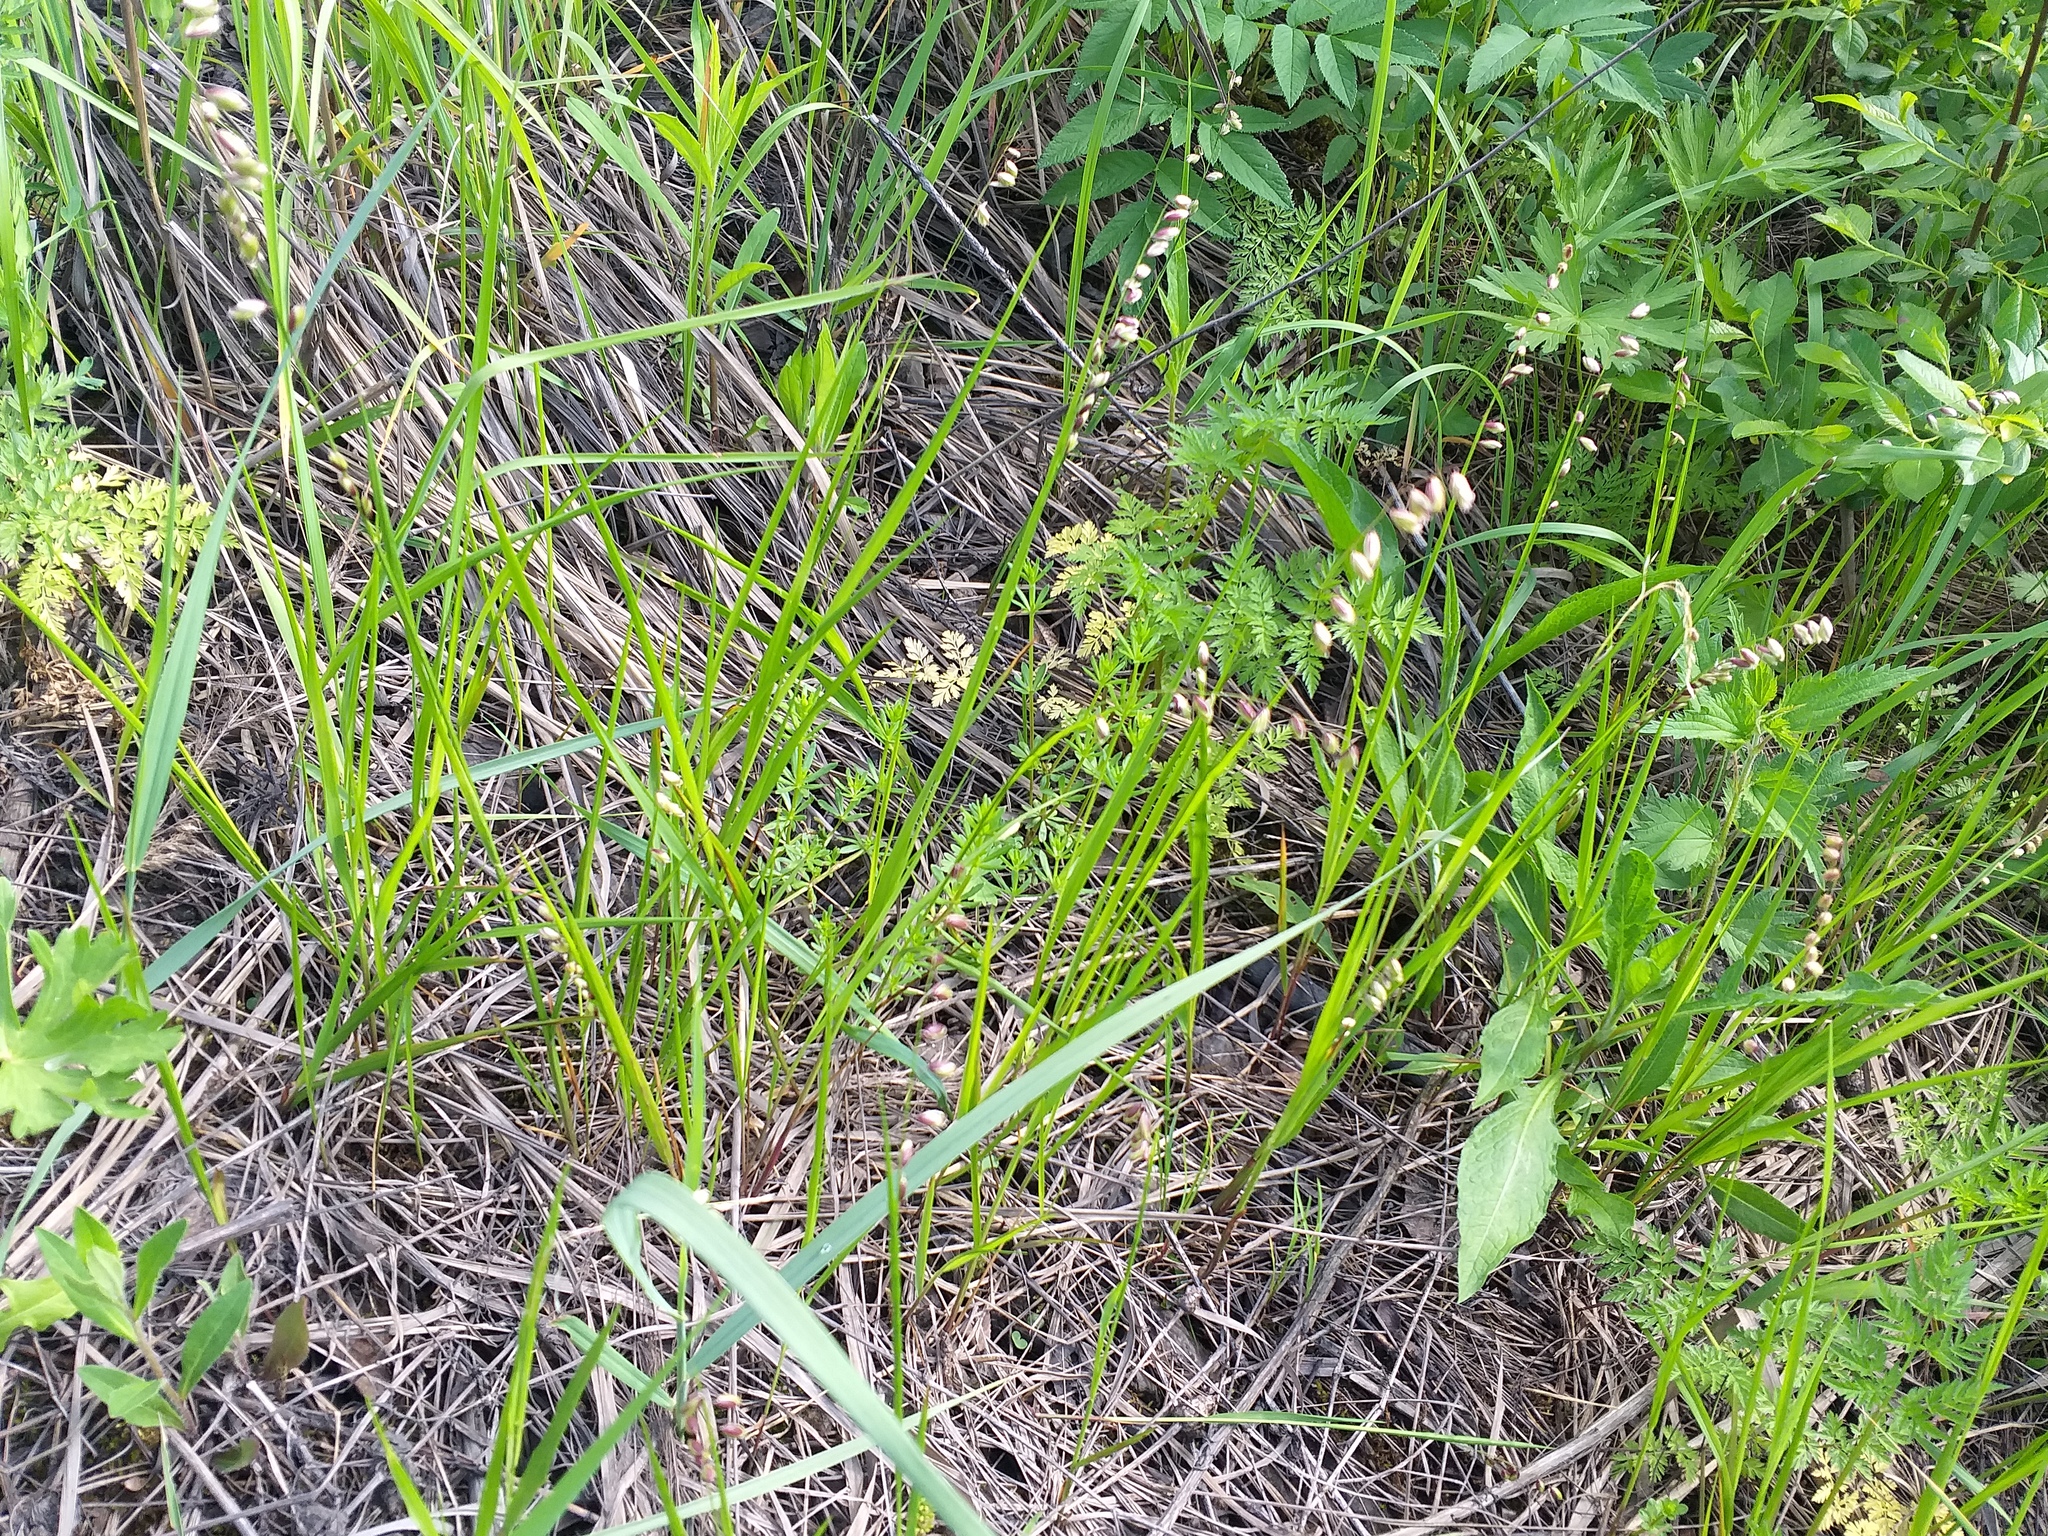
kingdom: Plantae
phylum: Tracheophyta
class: Liliopsida
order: Poales
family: Poaceae
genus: Melica
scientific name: Melica nutans
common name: Mountain melick
